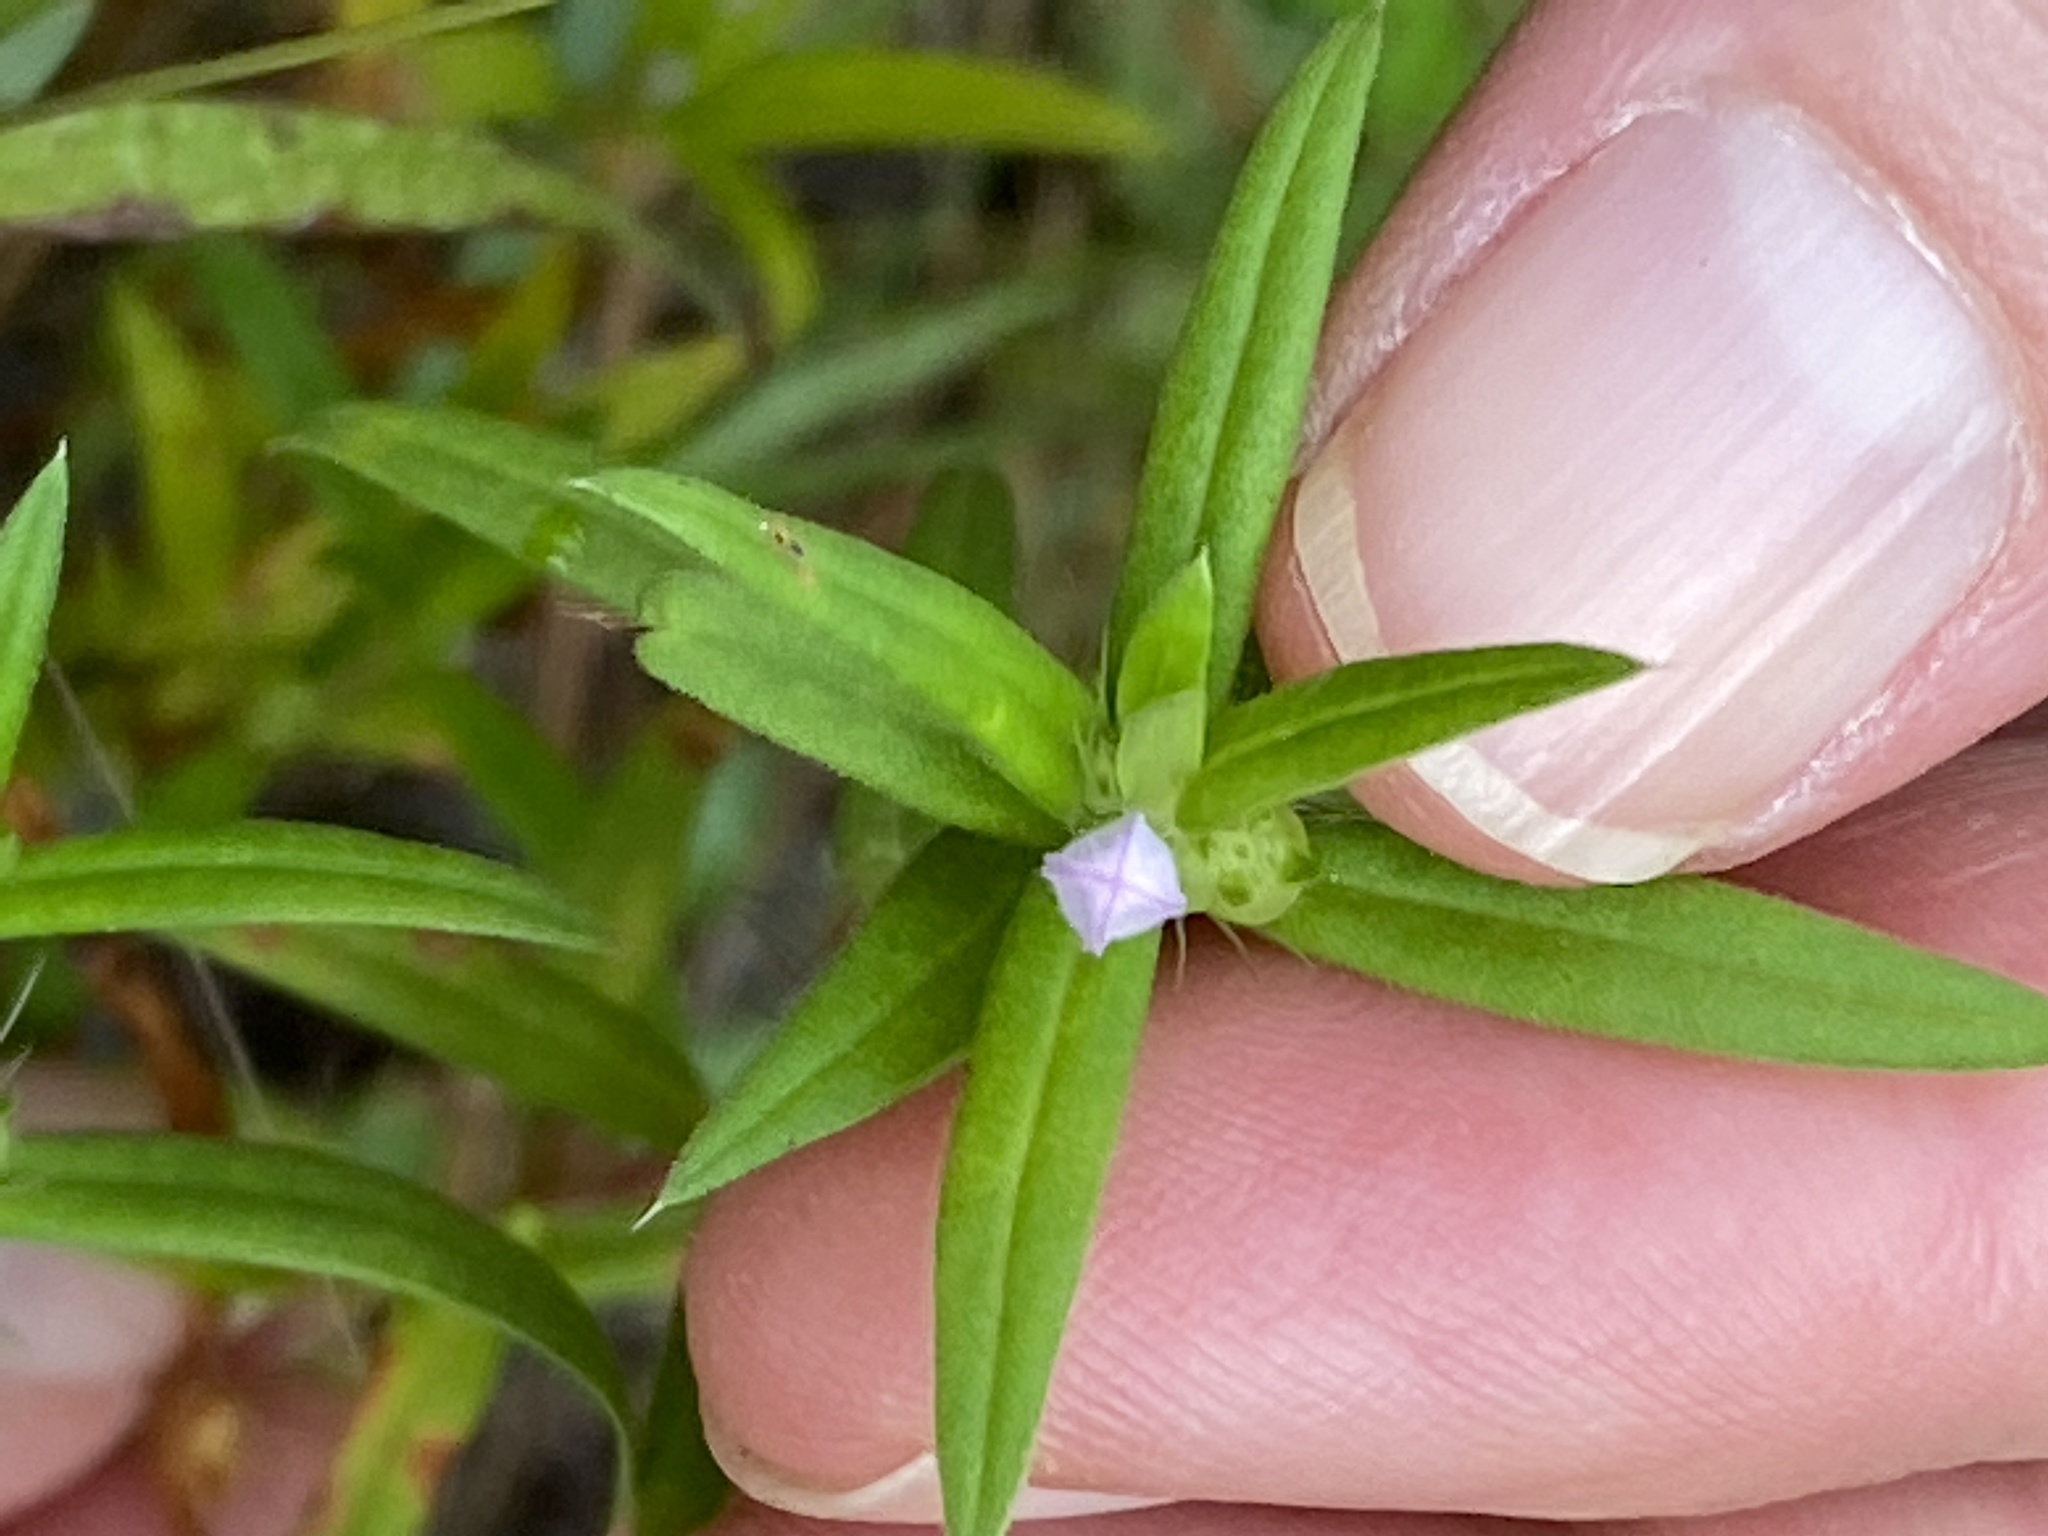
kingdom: Plantae
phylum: Tracheophyta
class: Magnoliopsida
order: Gentianales
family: Rubiaceae
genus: Hexasepalum
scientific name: Hexasepalum teres
